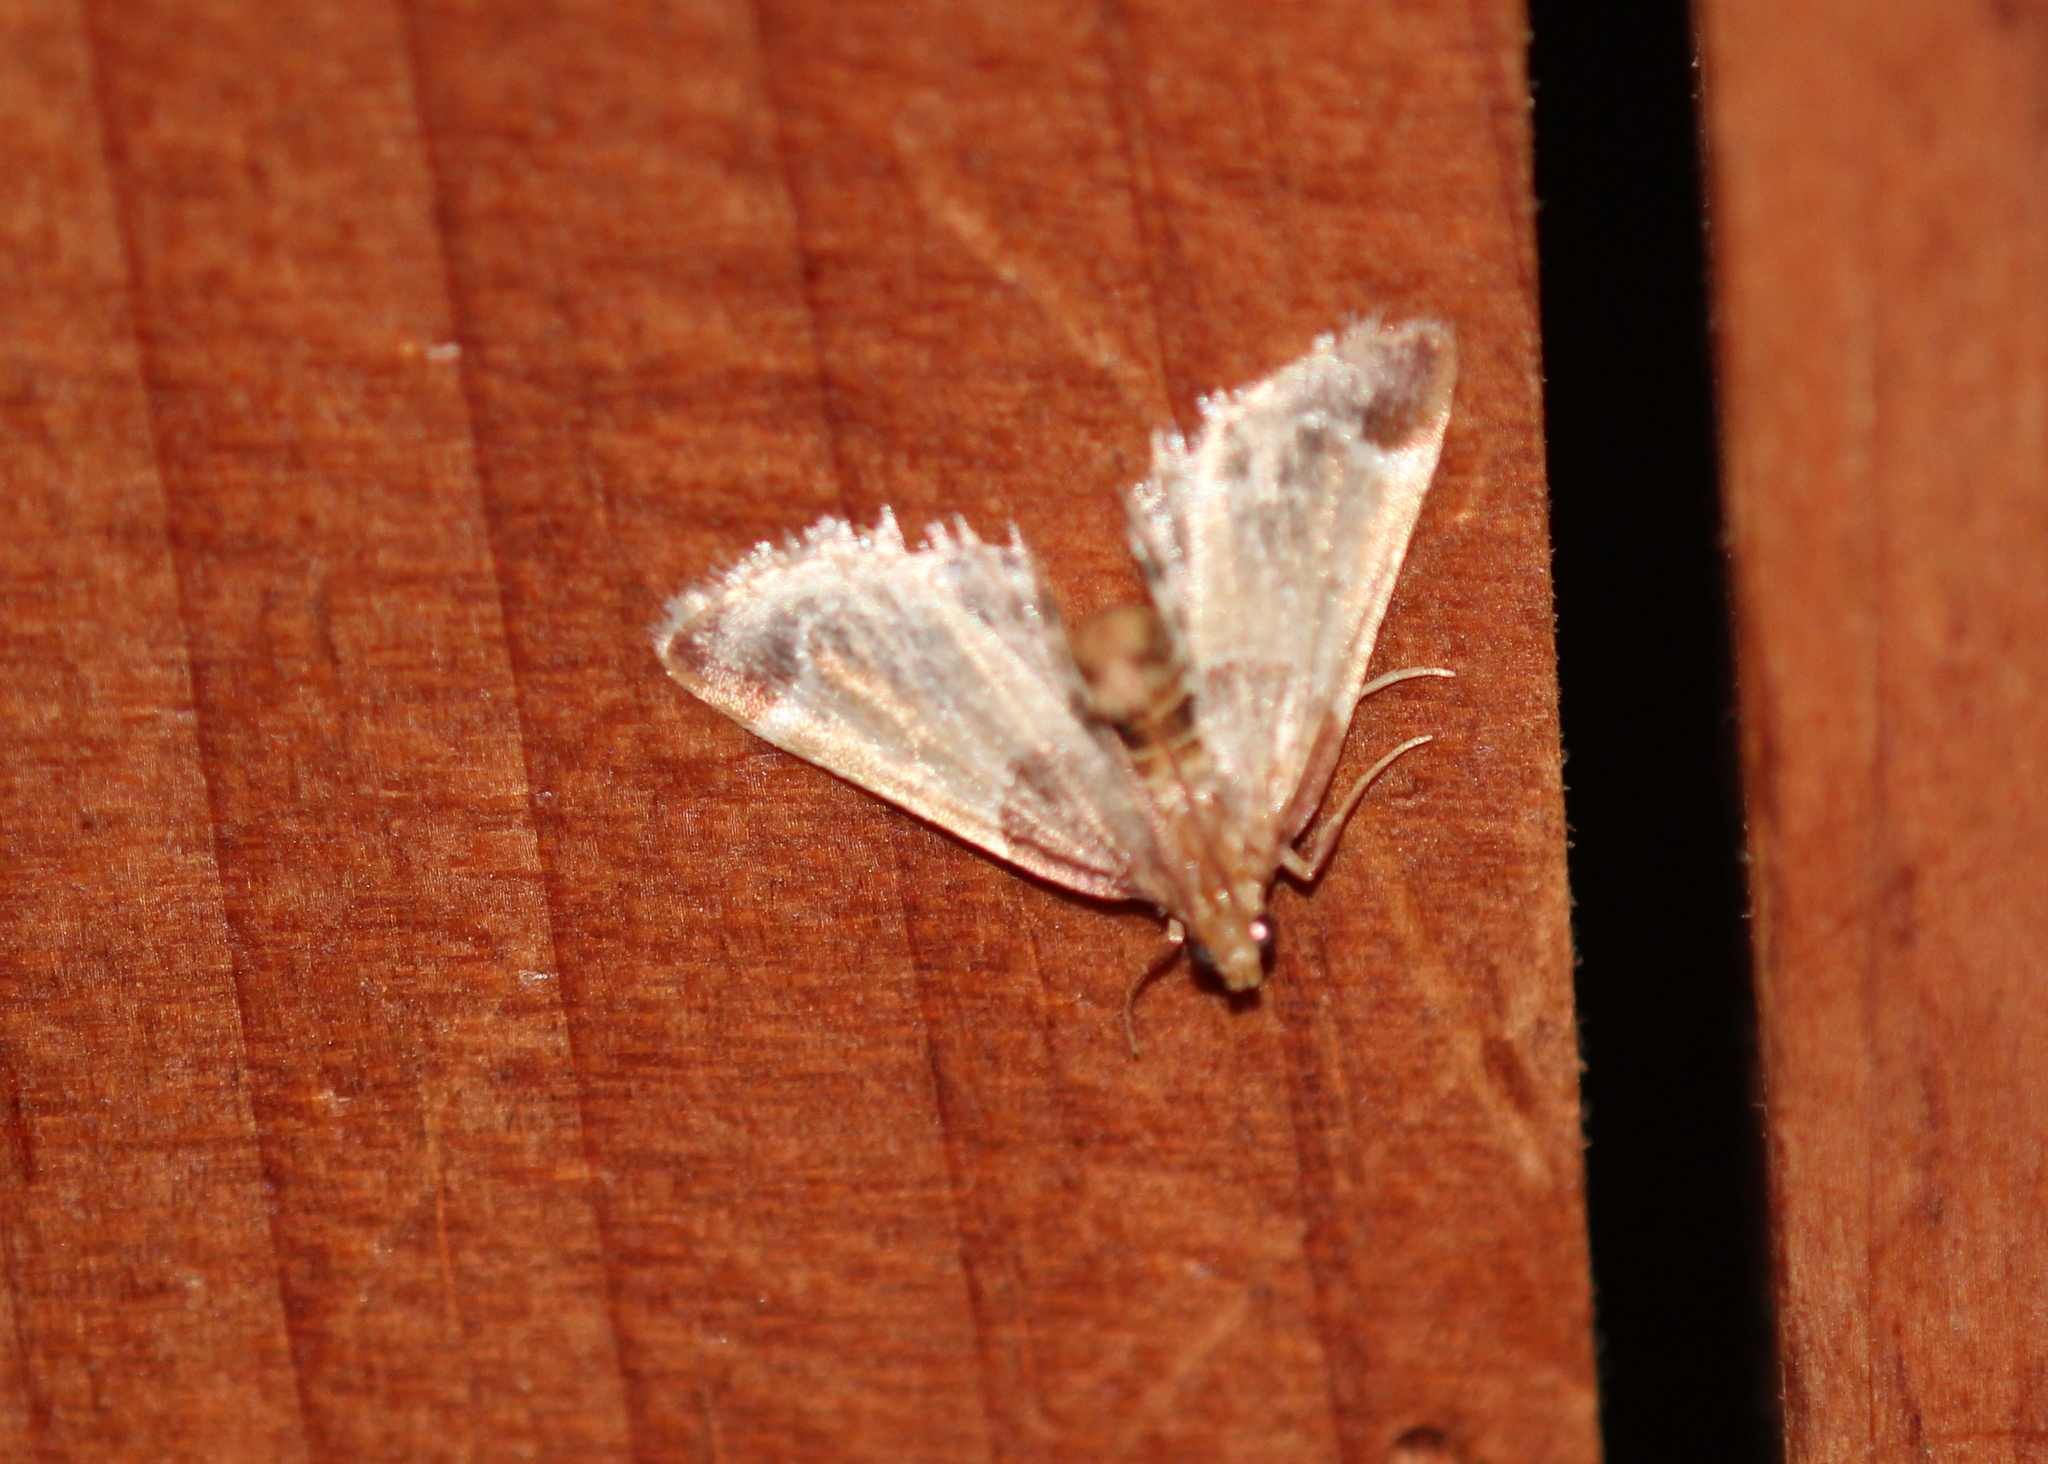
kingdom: Animalia
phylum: Arthropoda
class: Insecta
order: Lepidoptera
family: Pyralidae
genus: Pyralis
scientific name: Pyralis farinalis
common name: Meal moth
